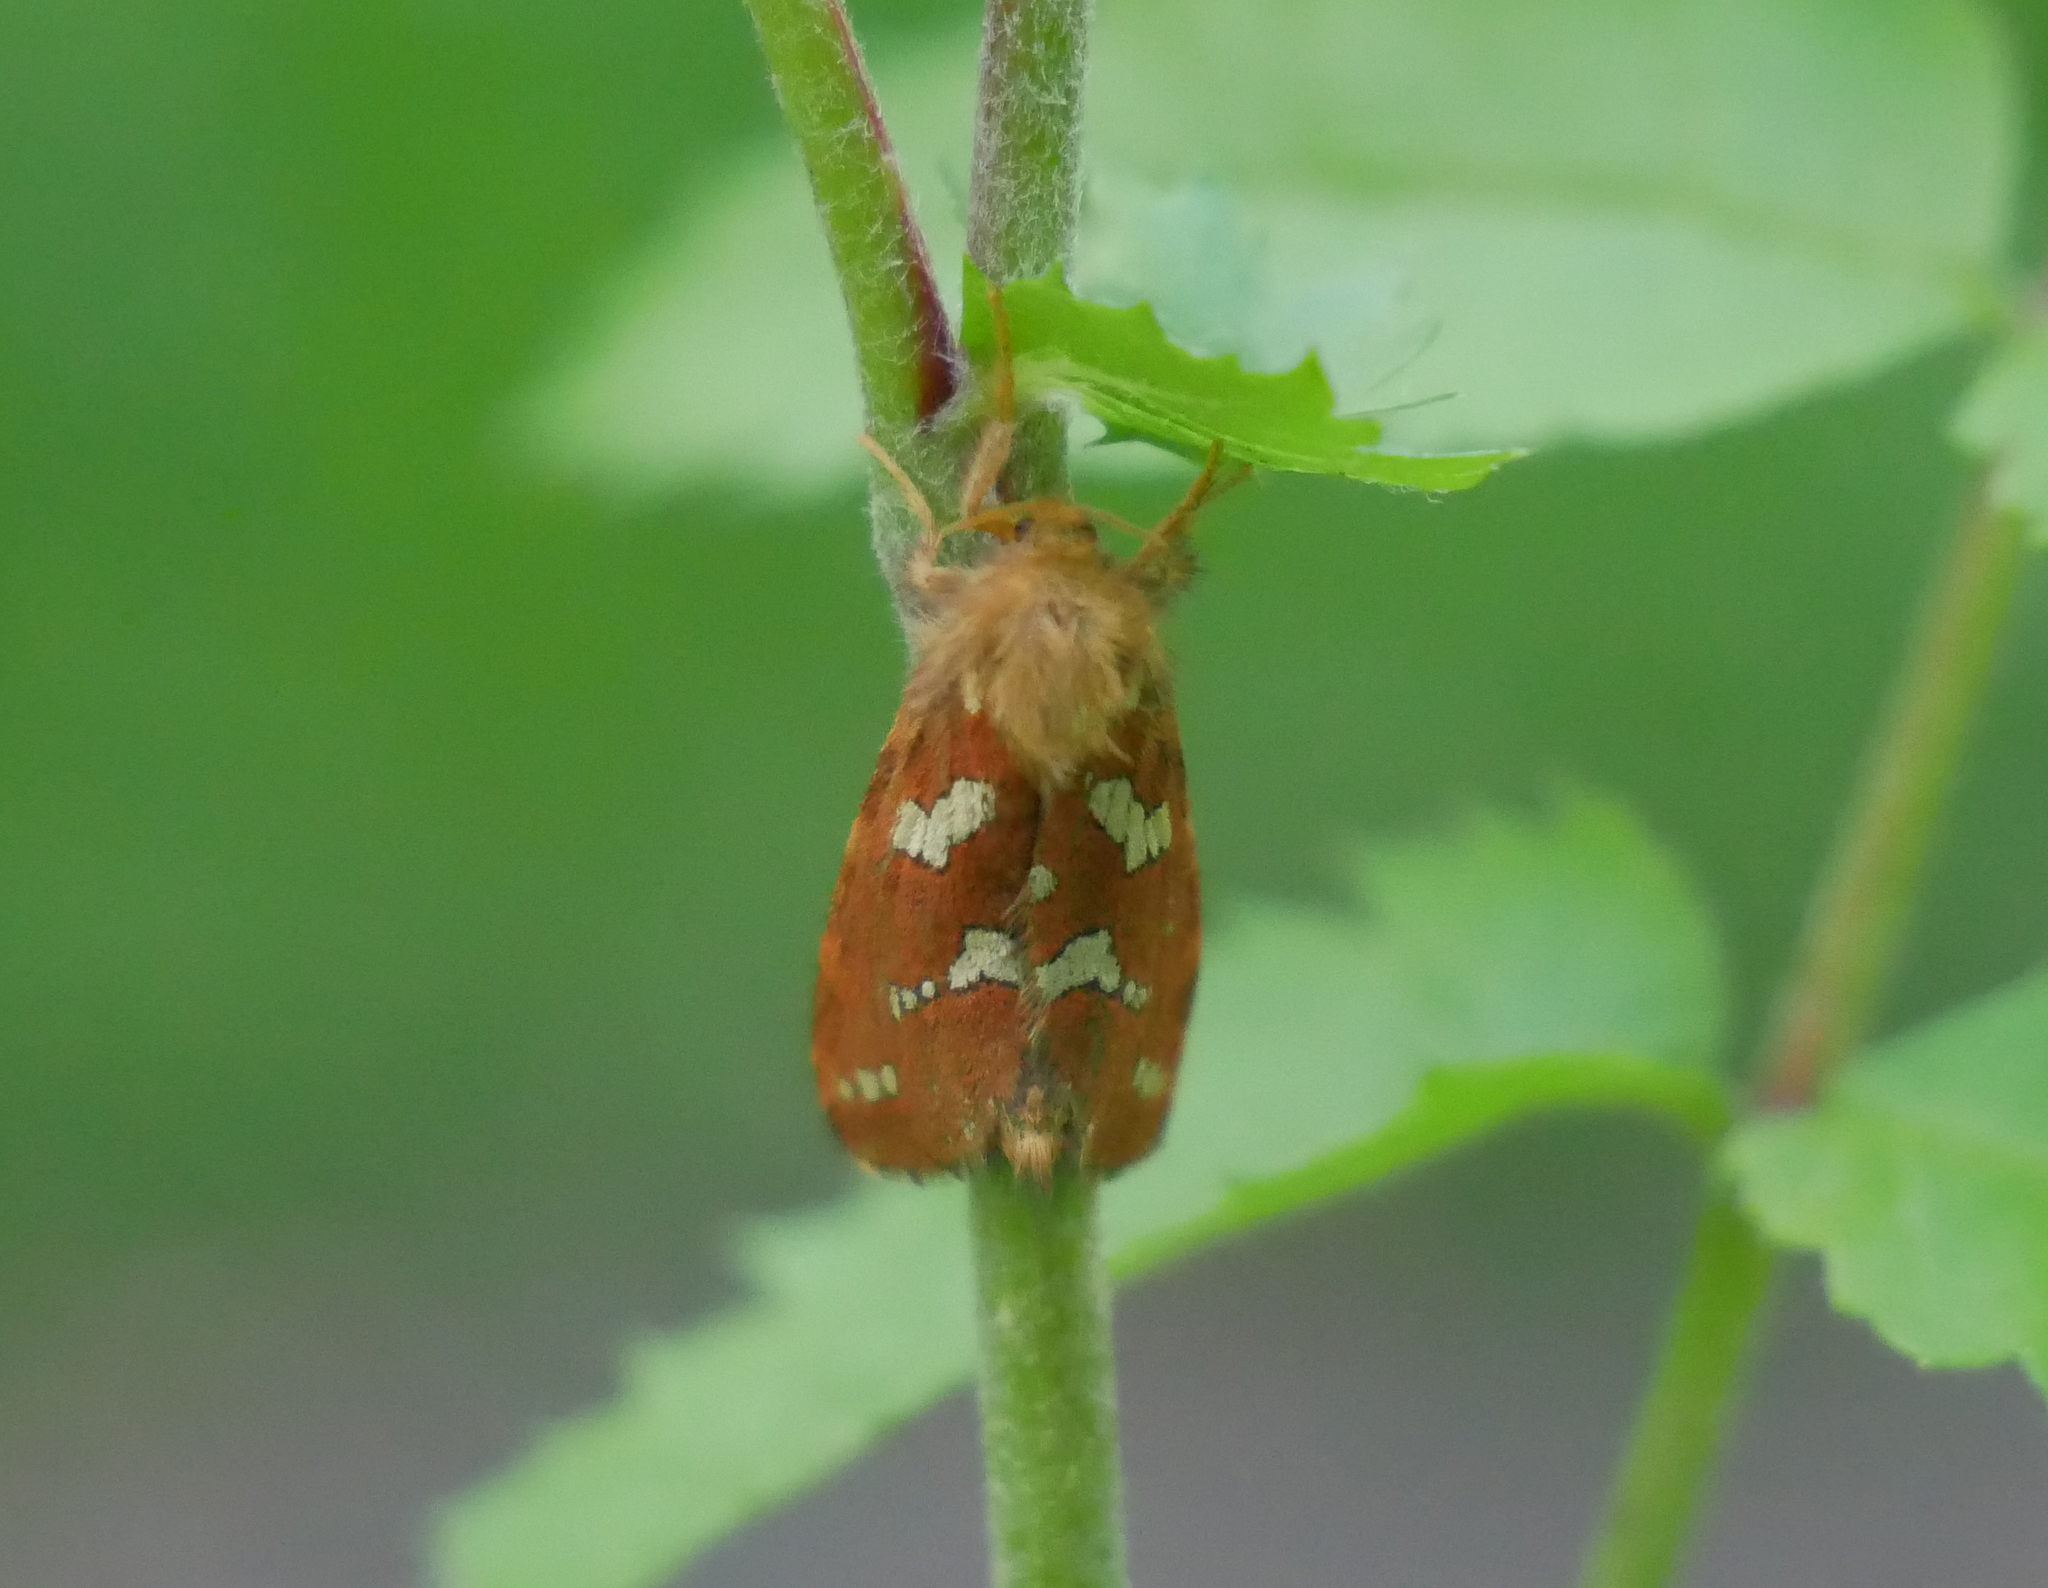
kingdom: Animalia
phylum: Arthropoda
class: Insecta
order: Lepidoptera
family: Hepialidae
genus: Phymatopus
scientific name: Phymatopus hecta
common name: Gold swift
